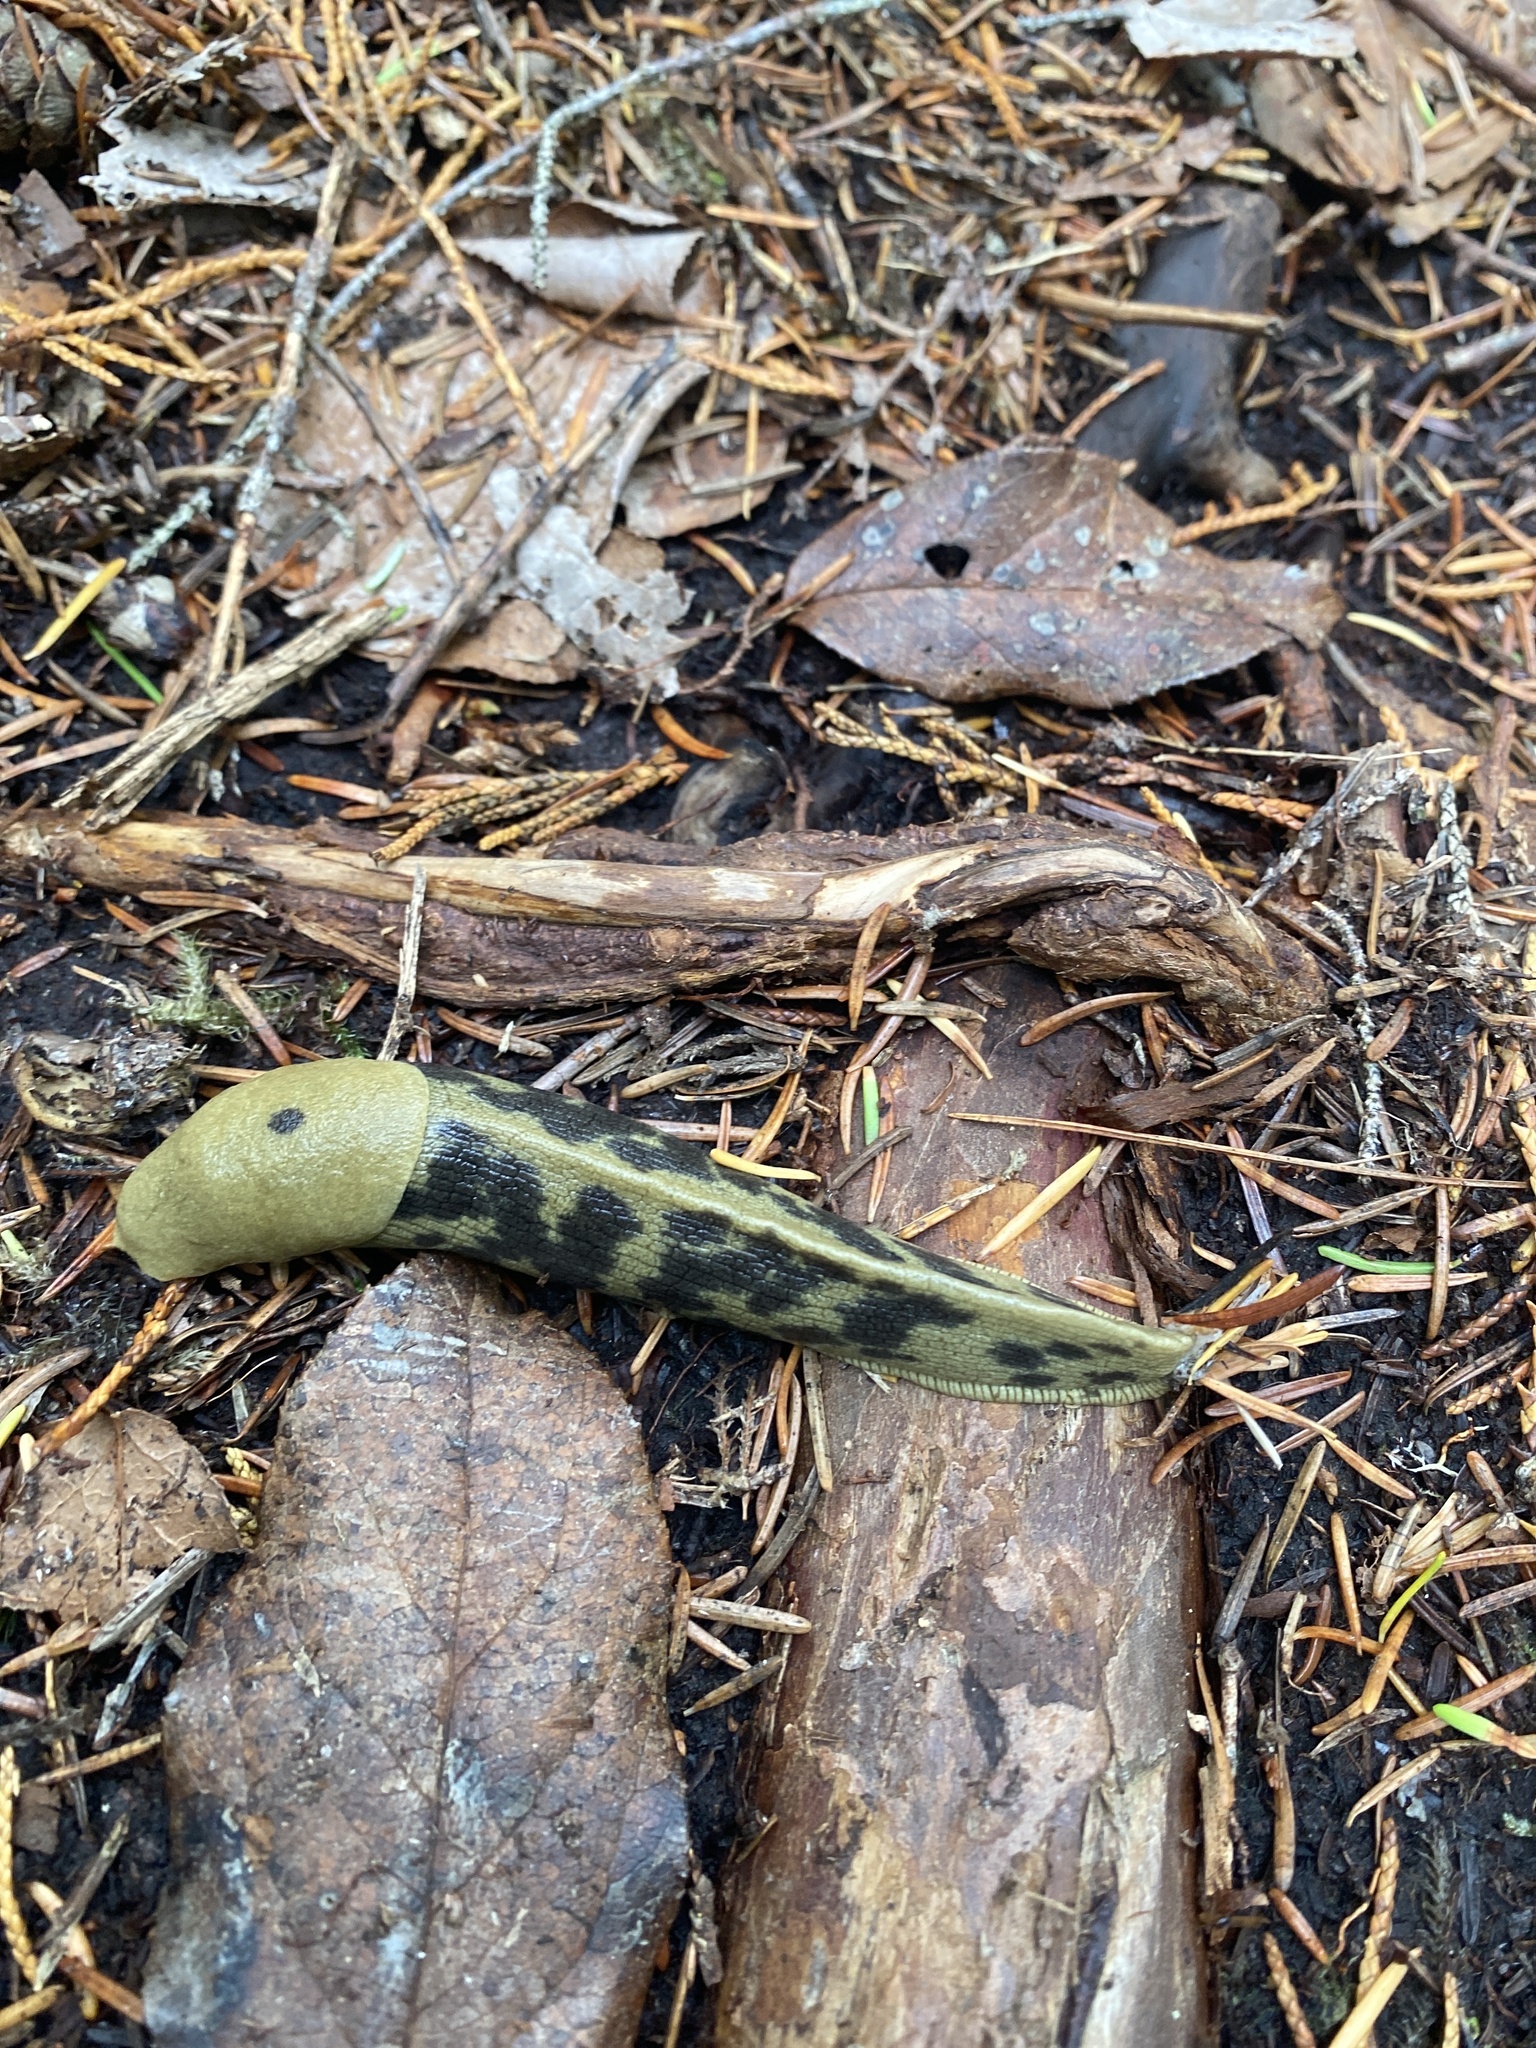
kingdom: Animalia
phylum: Mollusca
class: Gastropoda
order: Stylommatophora
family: Ariolimacidae
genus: Ariolimax
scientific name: Ariolimax columbianus
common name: Pacific banana slug
